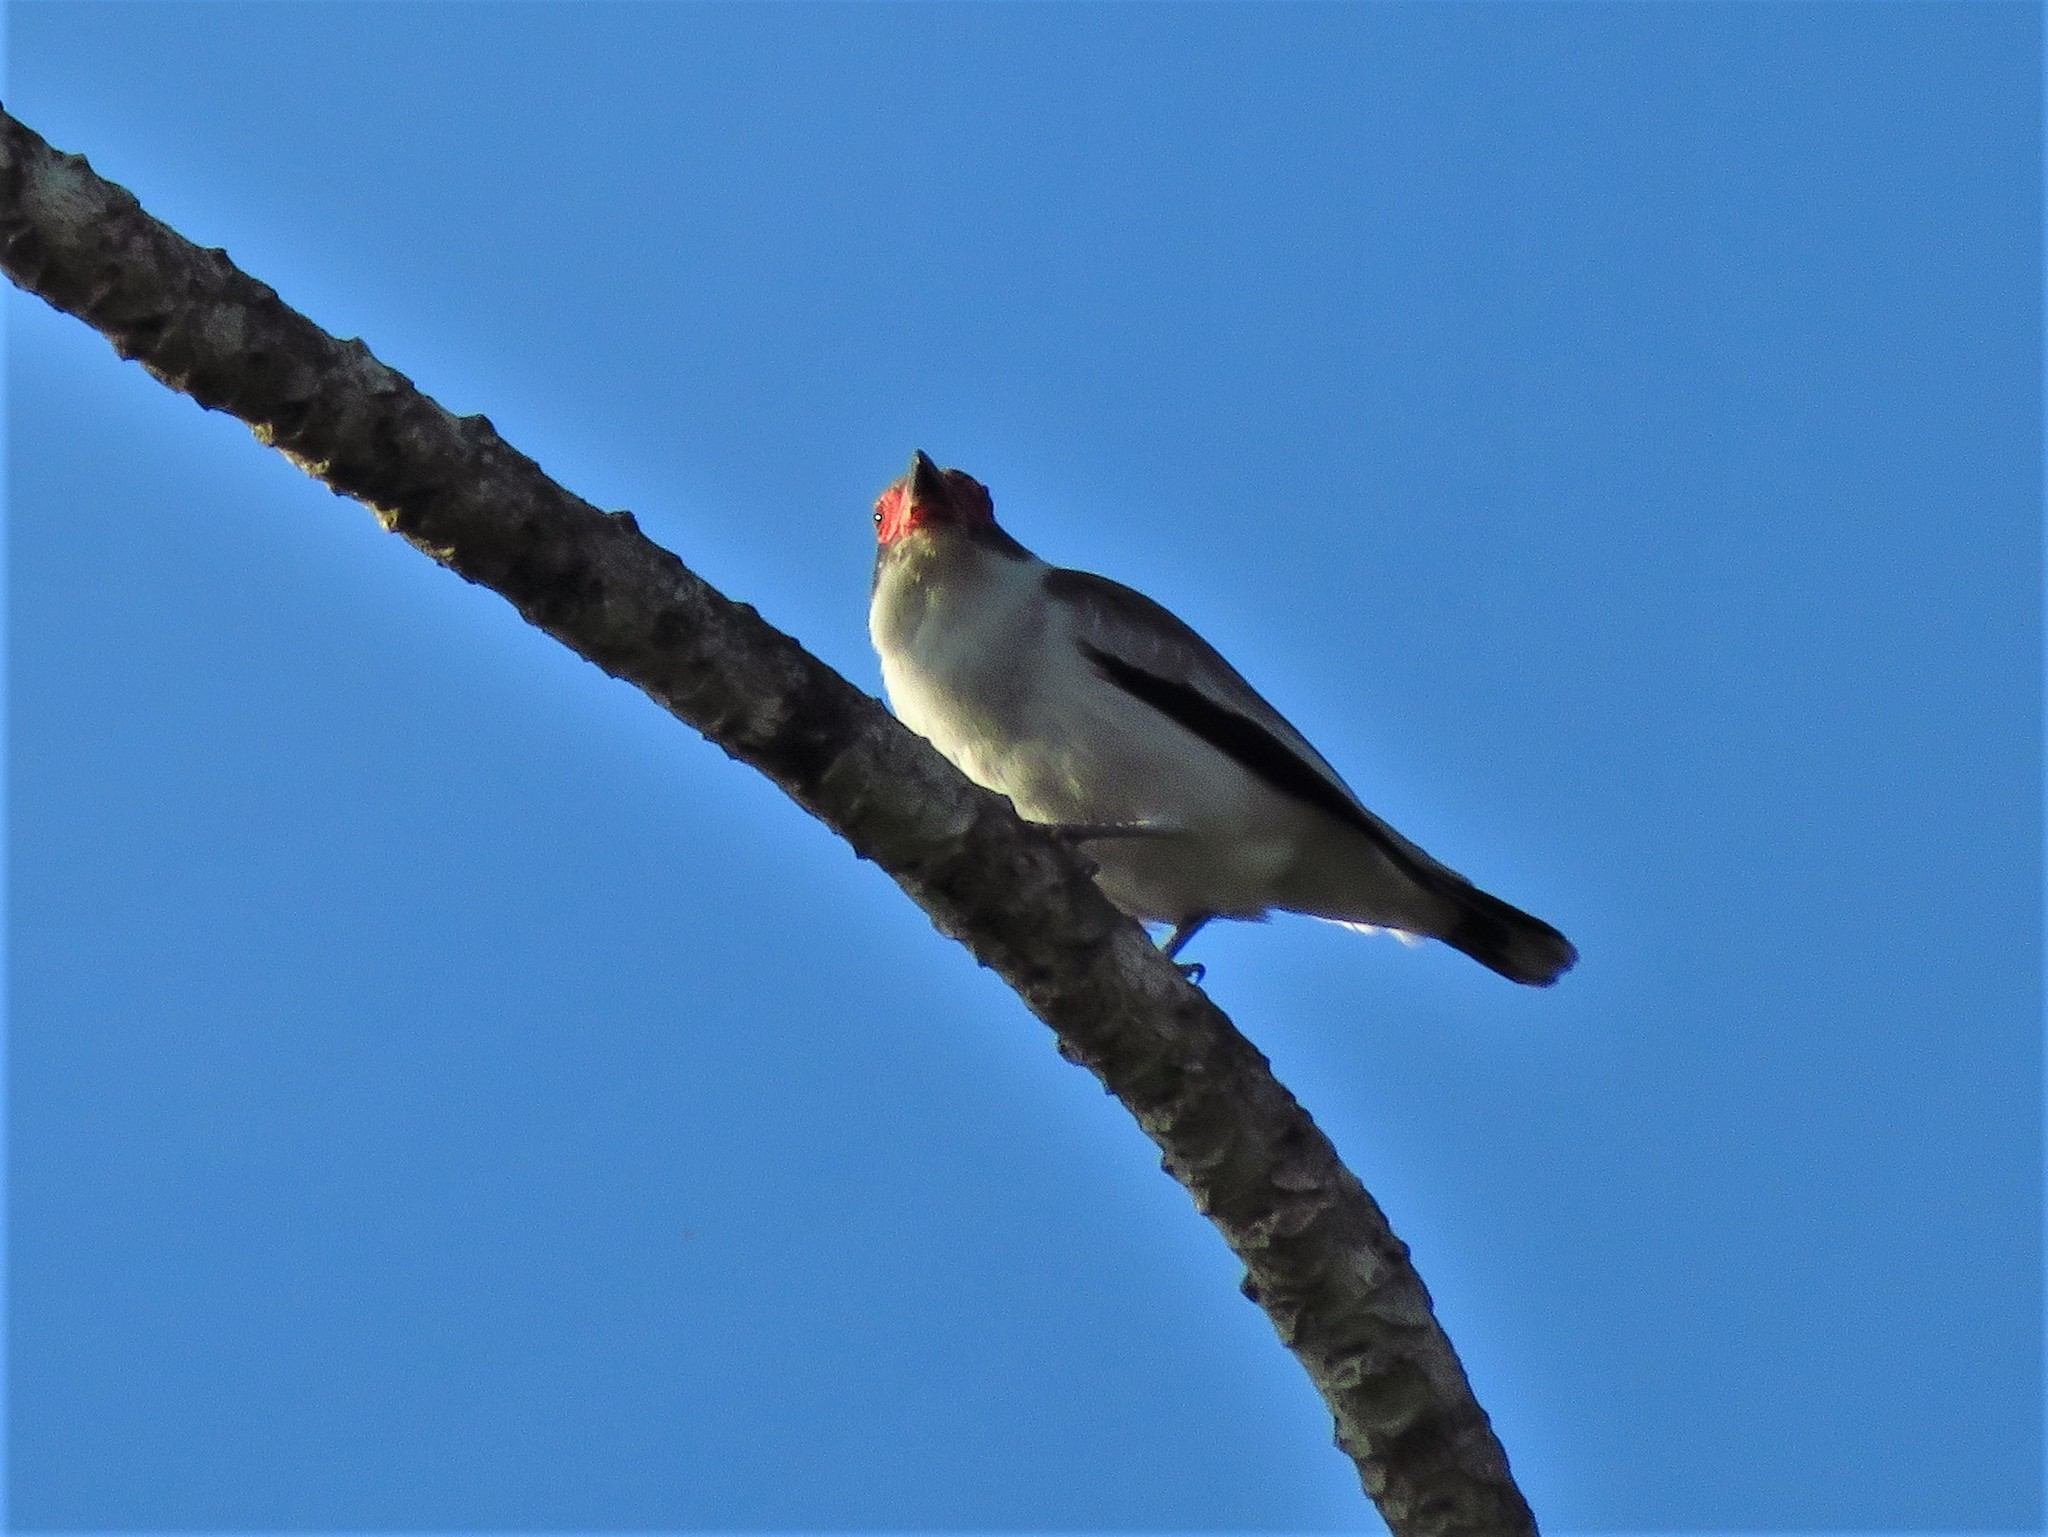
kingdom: Animalia
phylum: Chordata
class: Aves
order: Passeriformes
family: Cotingidae
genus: Tityra
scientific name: Tityra semifasciata
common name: Masked tityra
